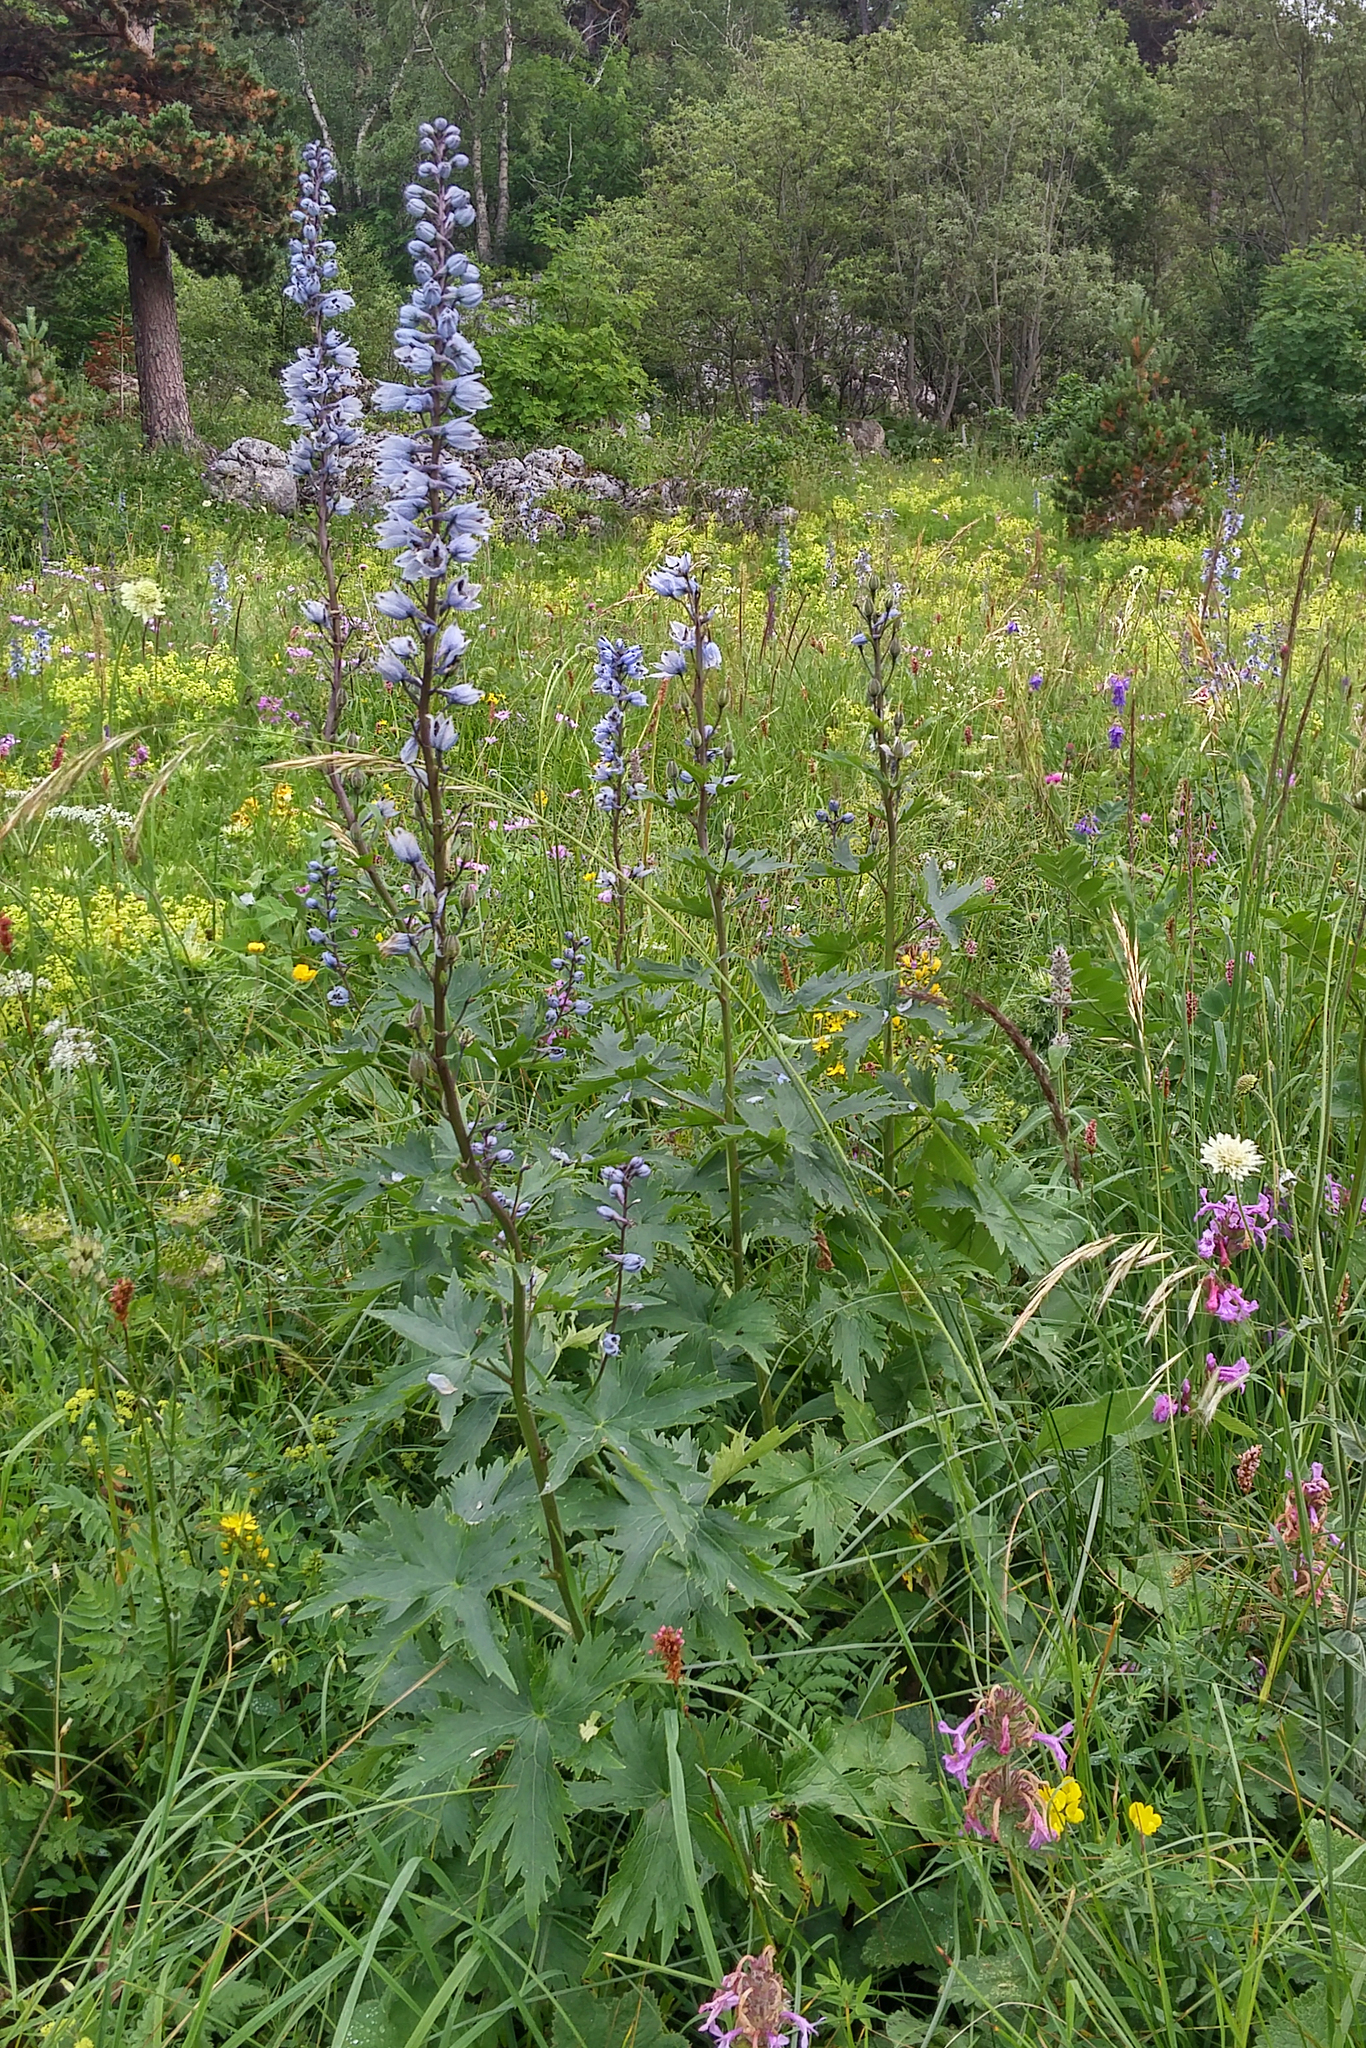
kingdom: Plantae
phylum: Tracheophyta
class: Magnoliopsida
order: Ranunculales
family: Ranunculaceae
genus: Delphinium
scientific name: Delphinium flexuosum
